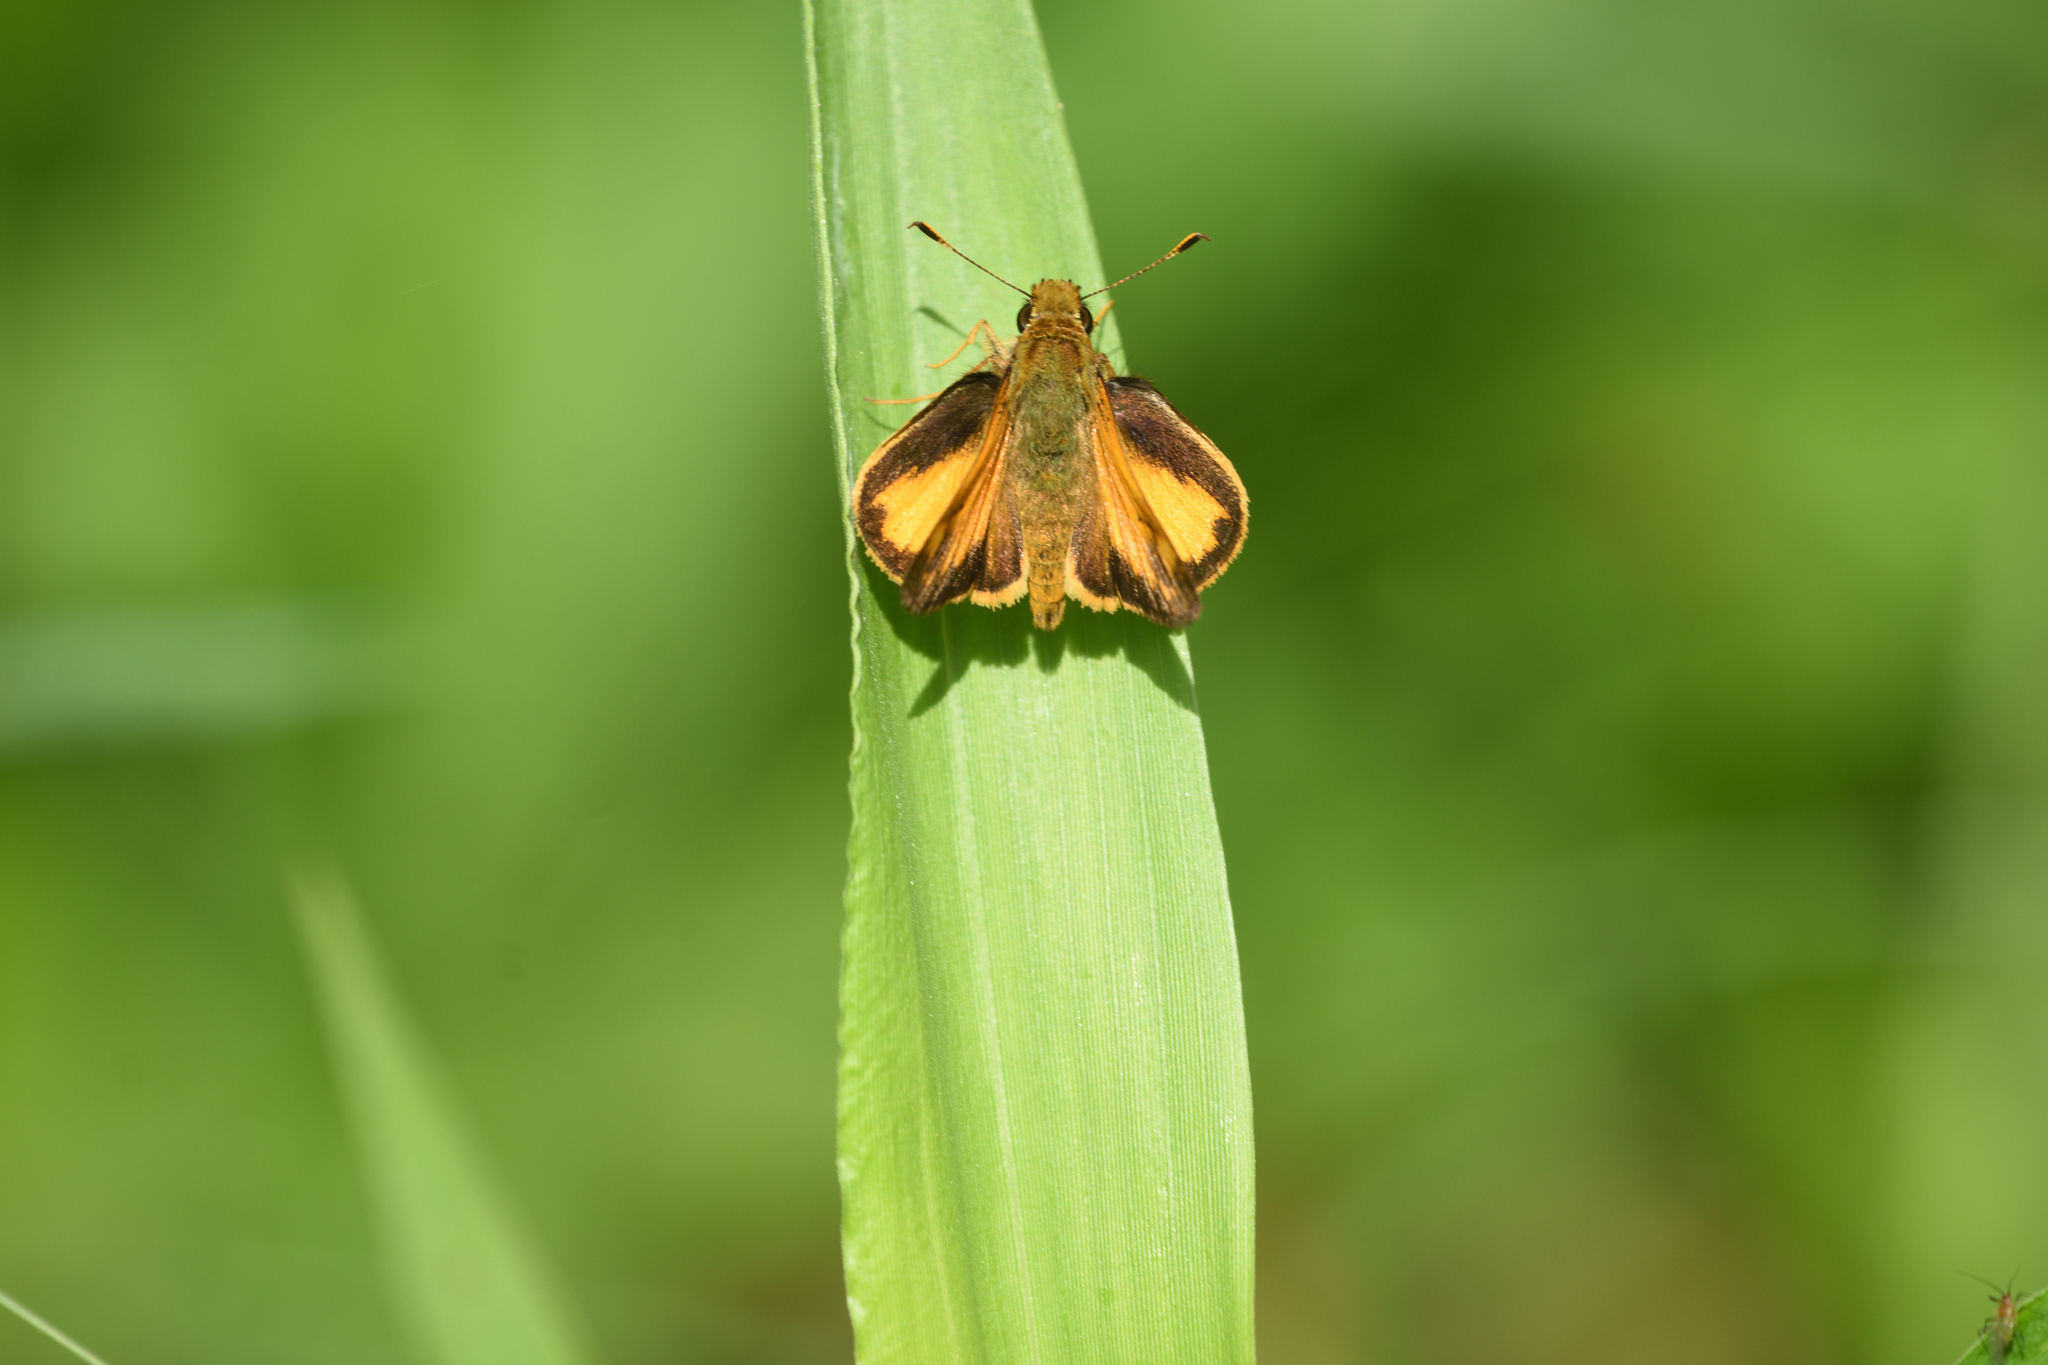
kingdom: Animalia
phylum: Arthropoda
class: Insecta
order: Lepidoptera
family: Hesperiidae
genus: Lon
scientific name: Lon zabulon
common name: Zabulon skipper
